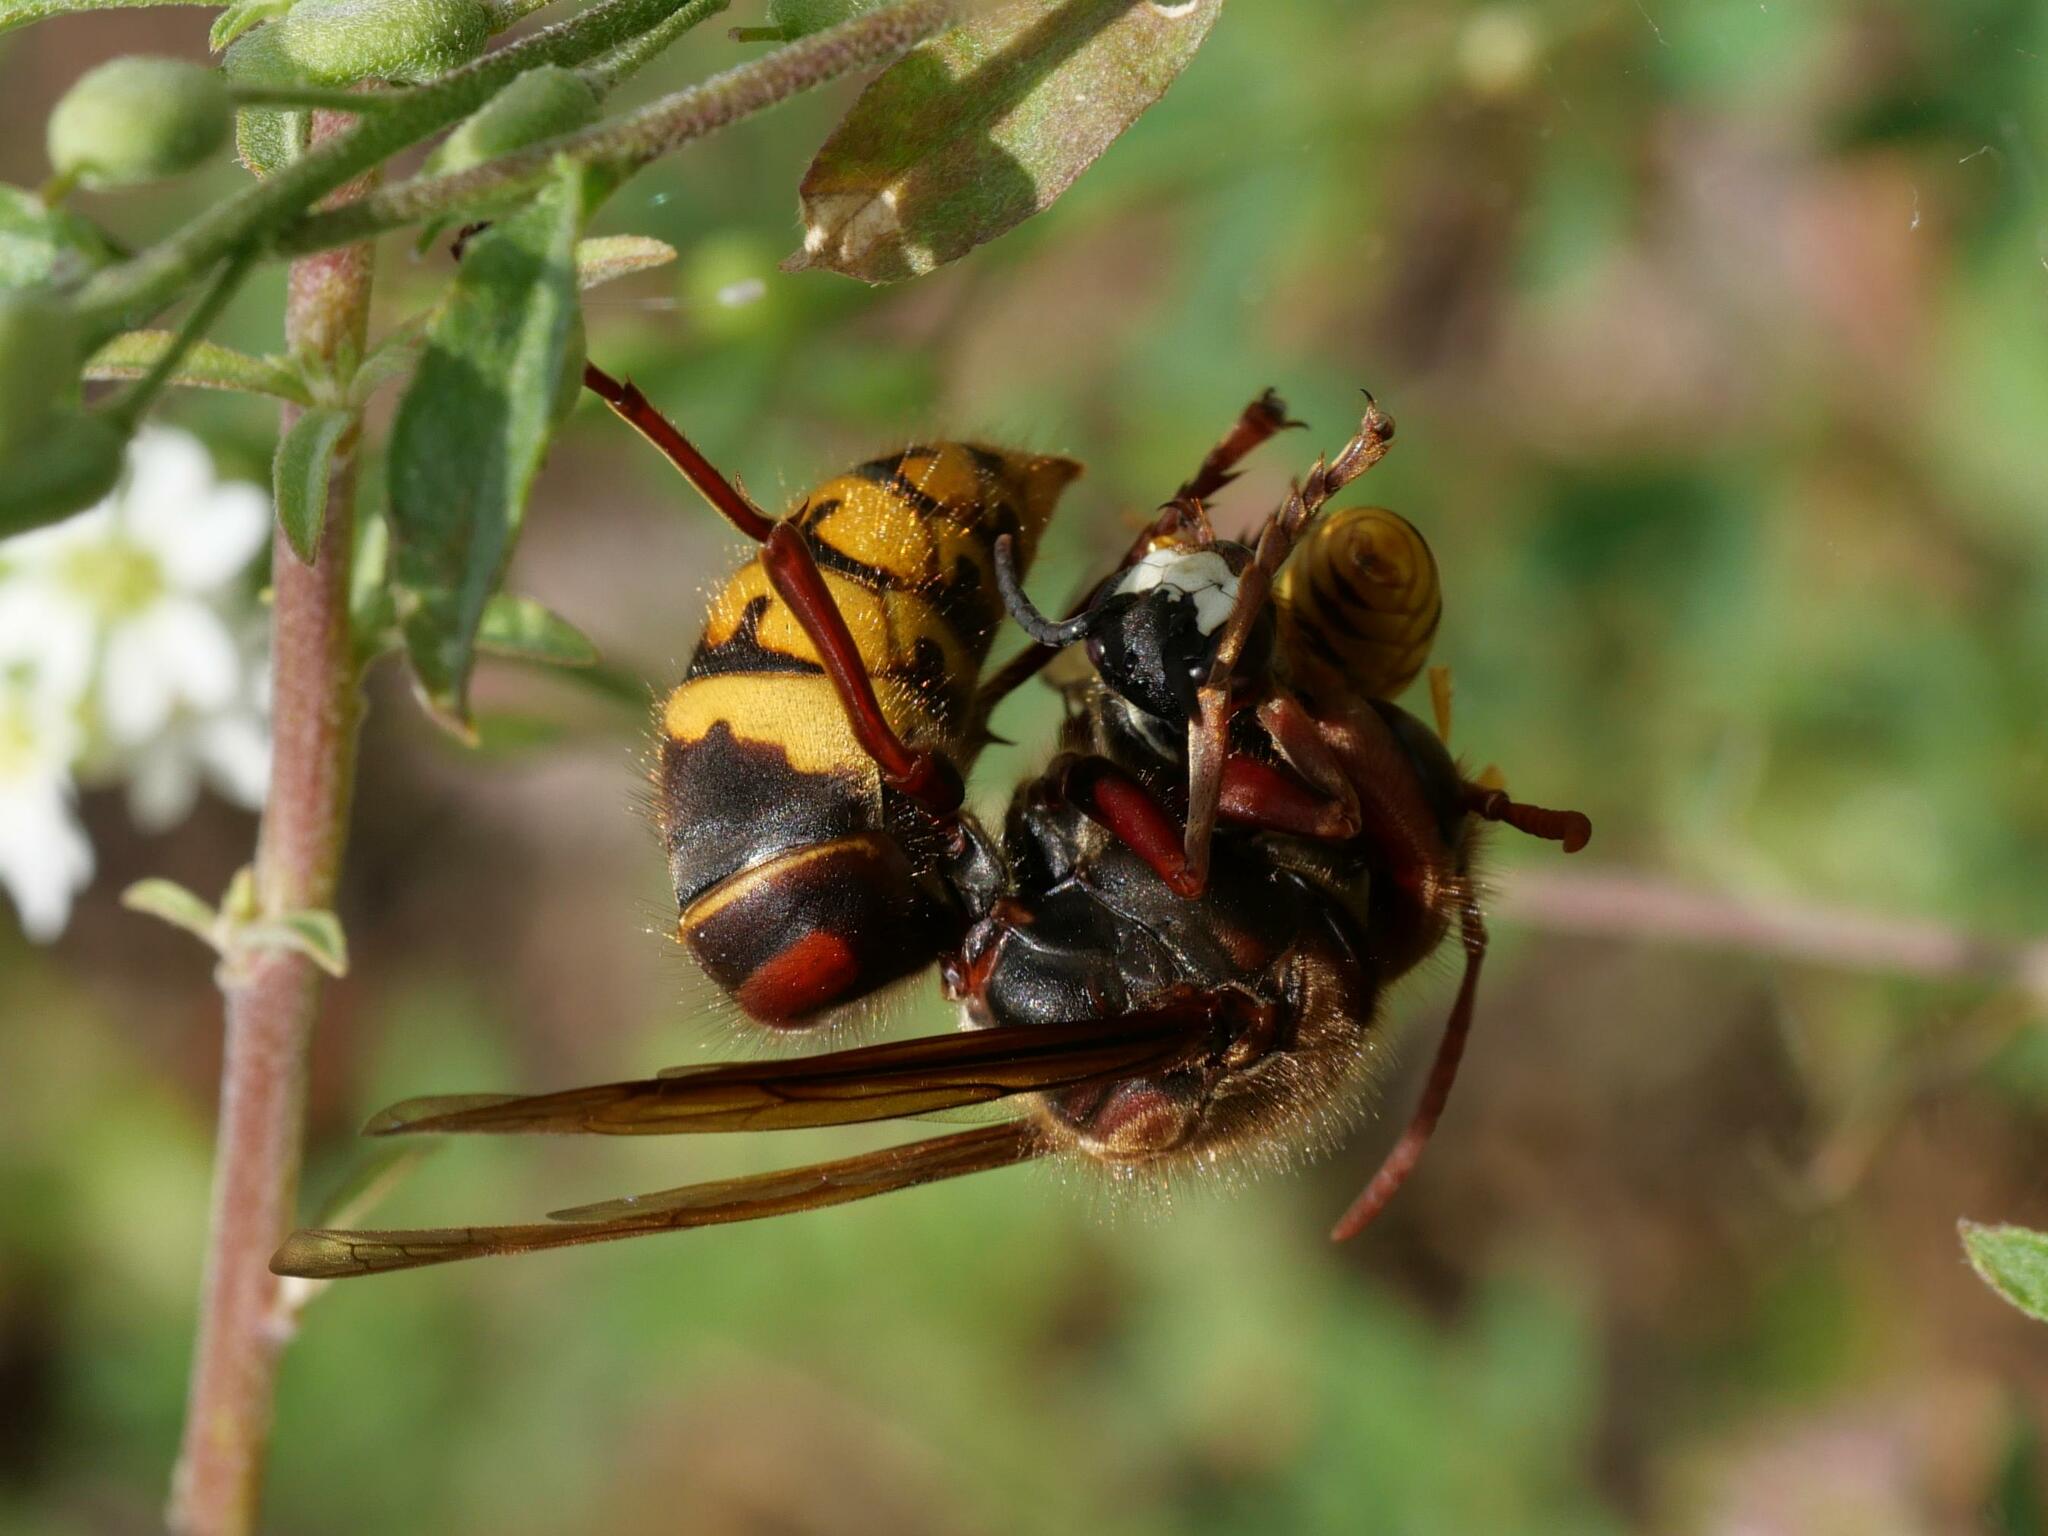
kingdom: Animalia
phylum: Arthropoda
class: Insecta
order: Hymenoptera
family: Crabronidae
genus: Philanthus
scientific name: Philanthus triangulum
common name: Bee wolf
